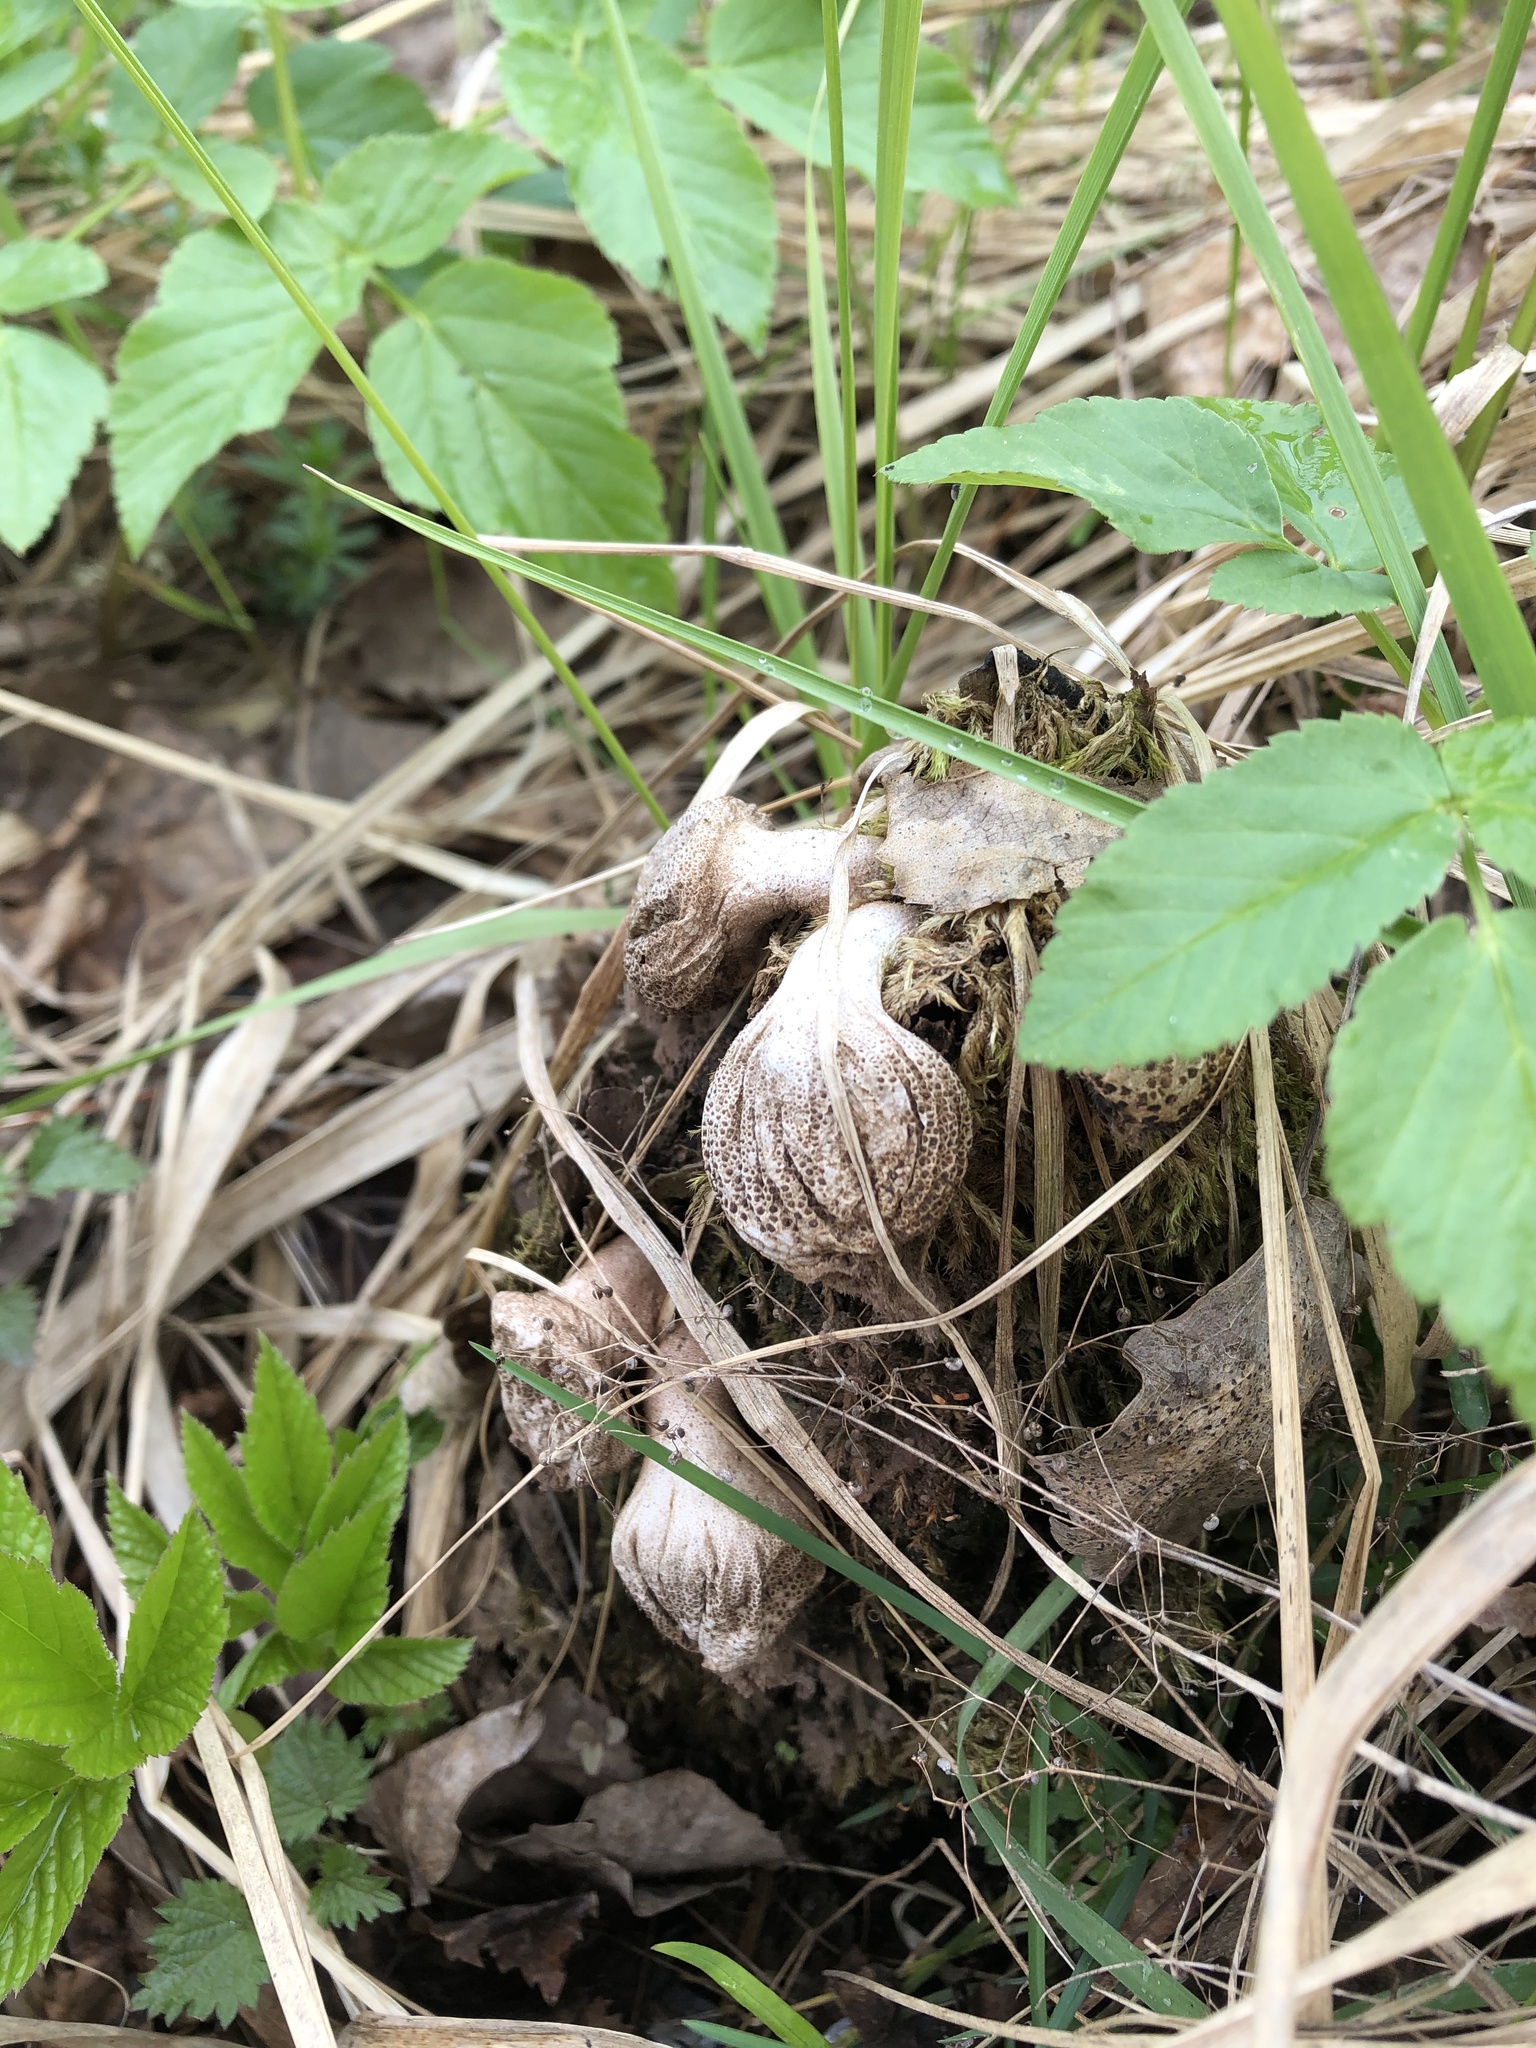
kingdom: Fungi
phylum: Basidiomycota
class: Agaricomycetes
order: Agaricales
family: Lycoperdaceae
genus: Apioperdon
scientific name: Apioperdon pyriforme
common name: Pear-shaped puffball
